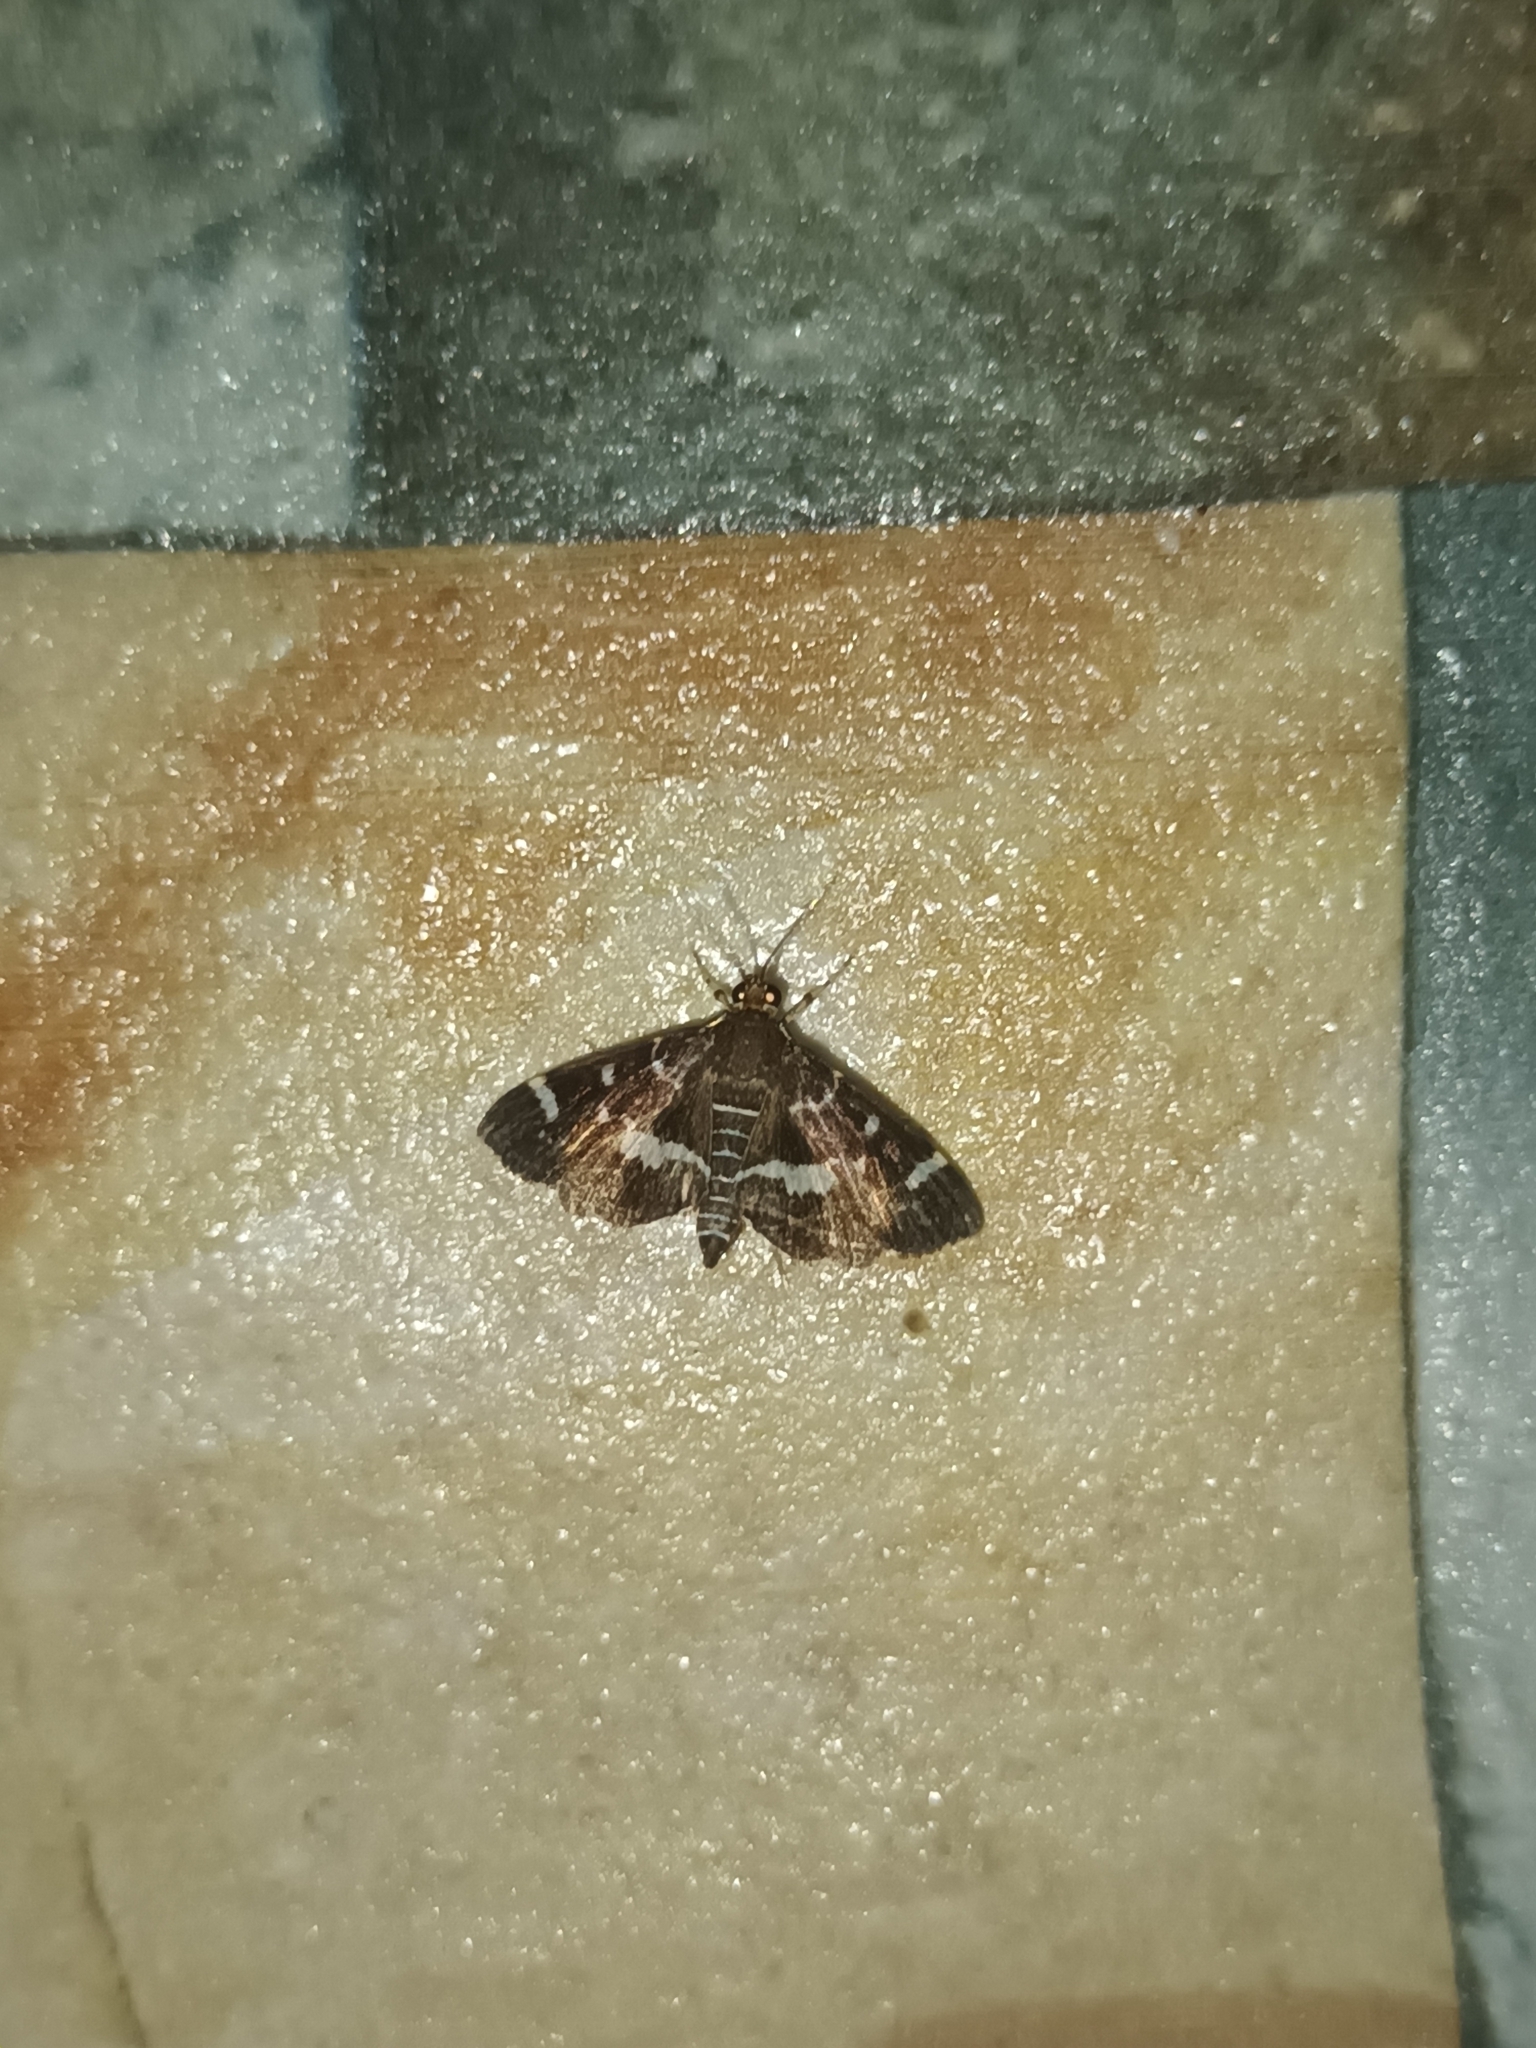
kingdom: Animalia
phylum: Arthropoda
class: Insecta
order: Lepidoptera
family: Crambidae
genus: Hymenia
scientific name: Hymenia perspectalis
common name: Spotted beet webworm
